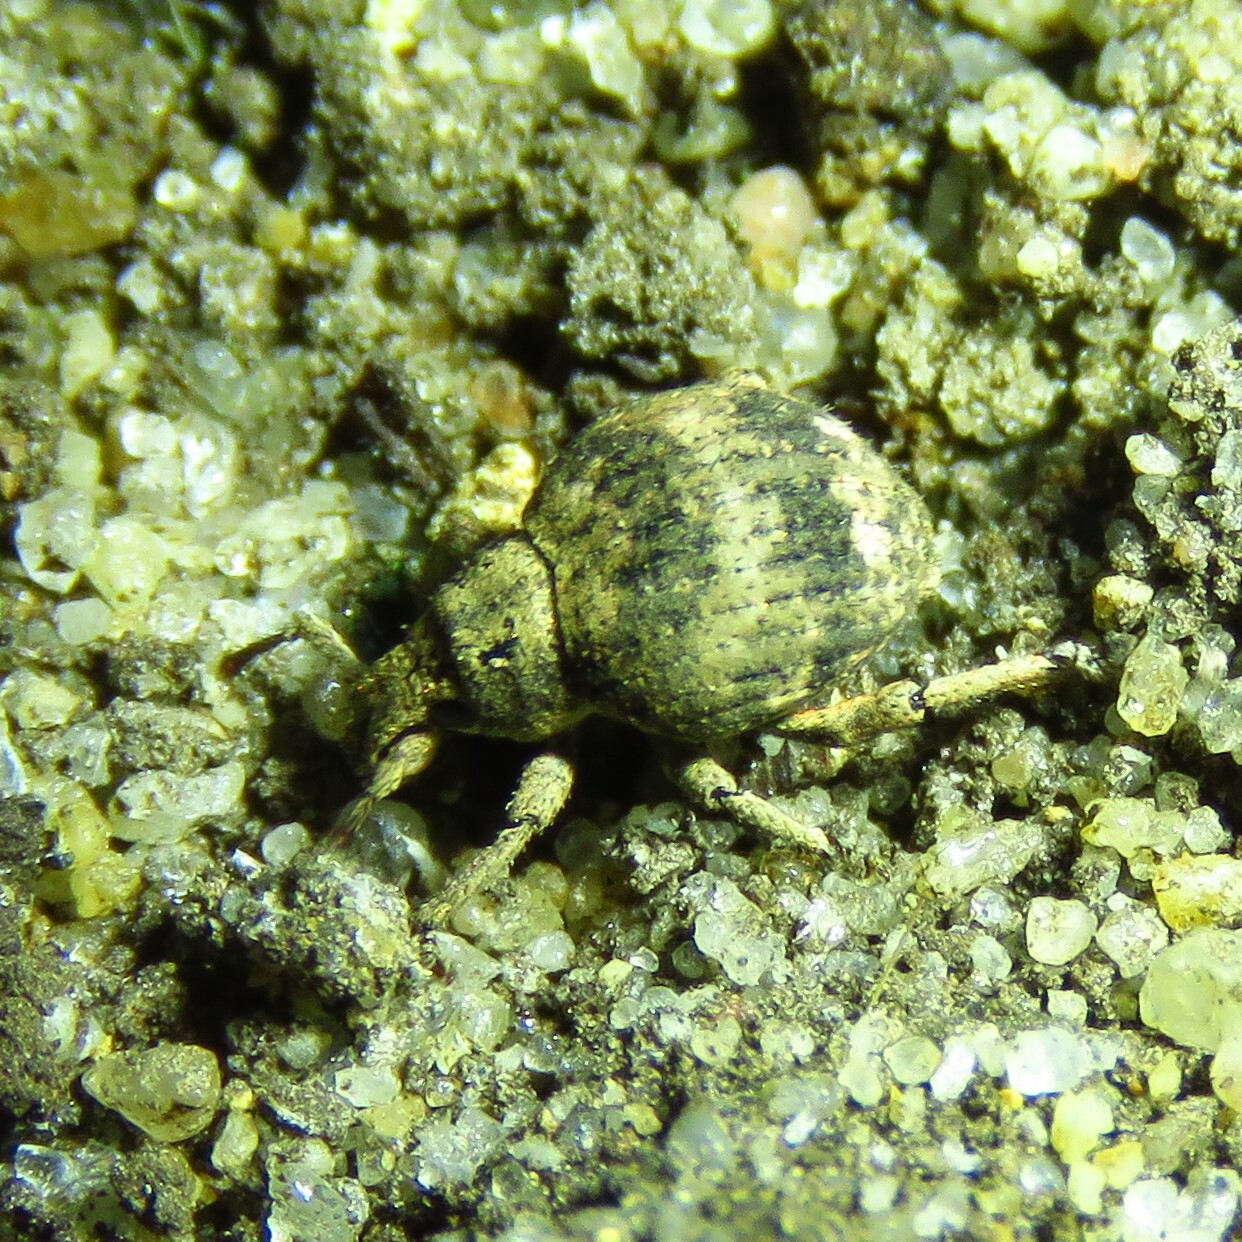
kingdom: Animalia
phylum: Arthropoda
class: Insecta
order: Coleoptera
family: Curculionidae
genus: Pseudocneorhinus
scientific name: Pseudocneorhinus bifasciatus
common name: Two-banded japanese weevil
